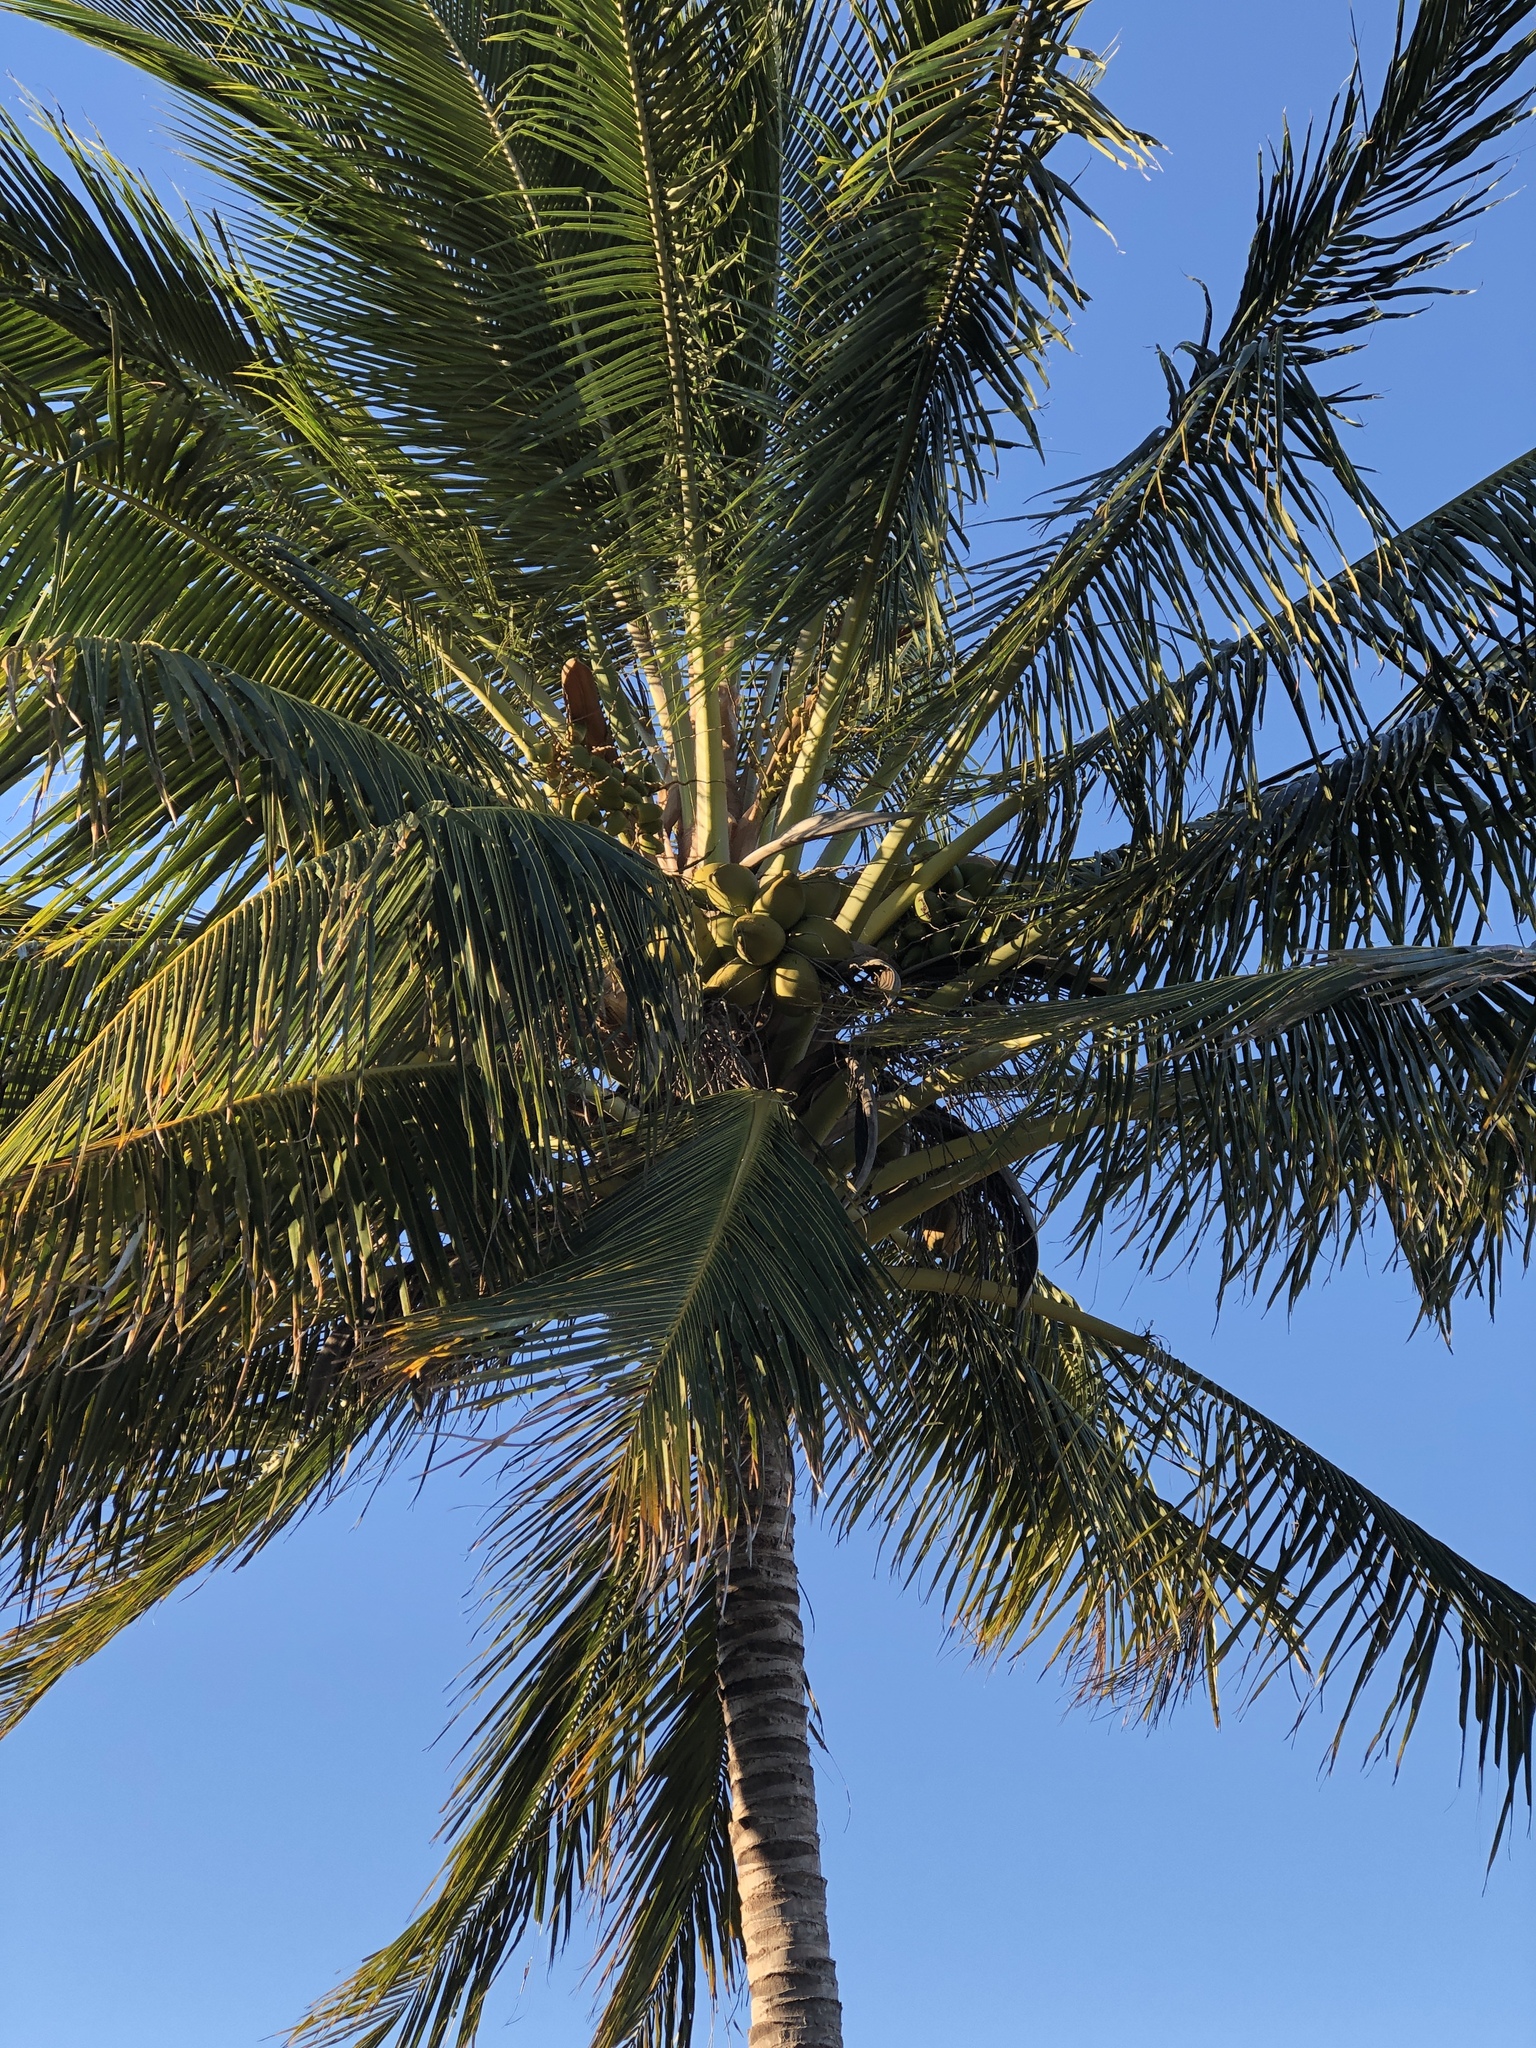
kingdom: Plantae
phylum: Tracheophyta
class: Liliopsida
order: Arecales
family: Arecaceae
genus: Cocos
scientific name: Cocos nucifera
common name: Coconut palm
